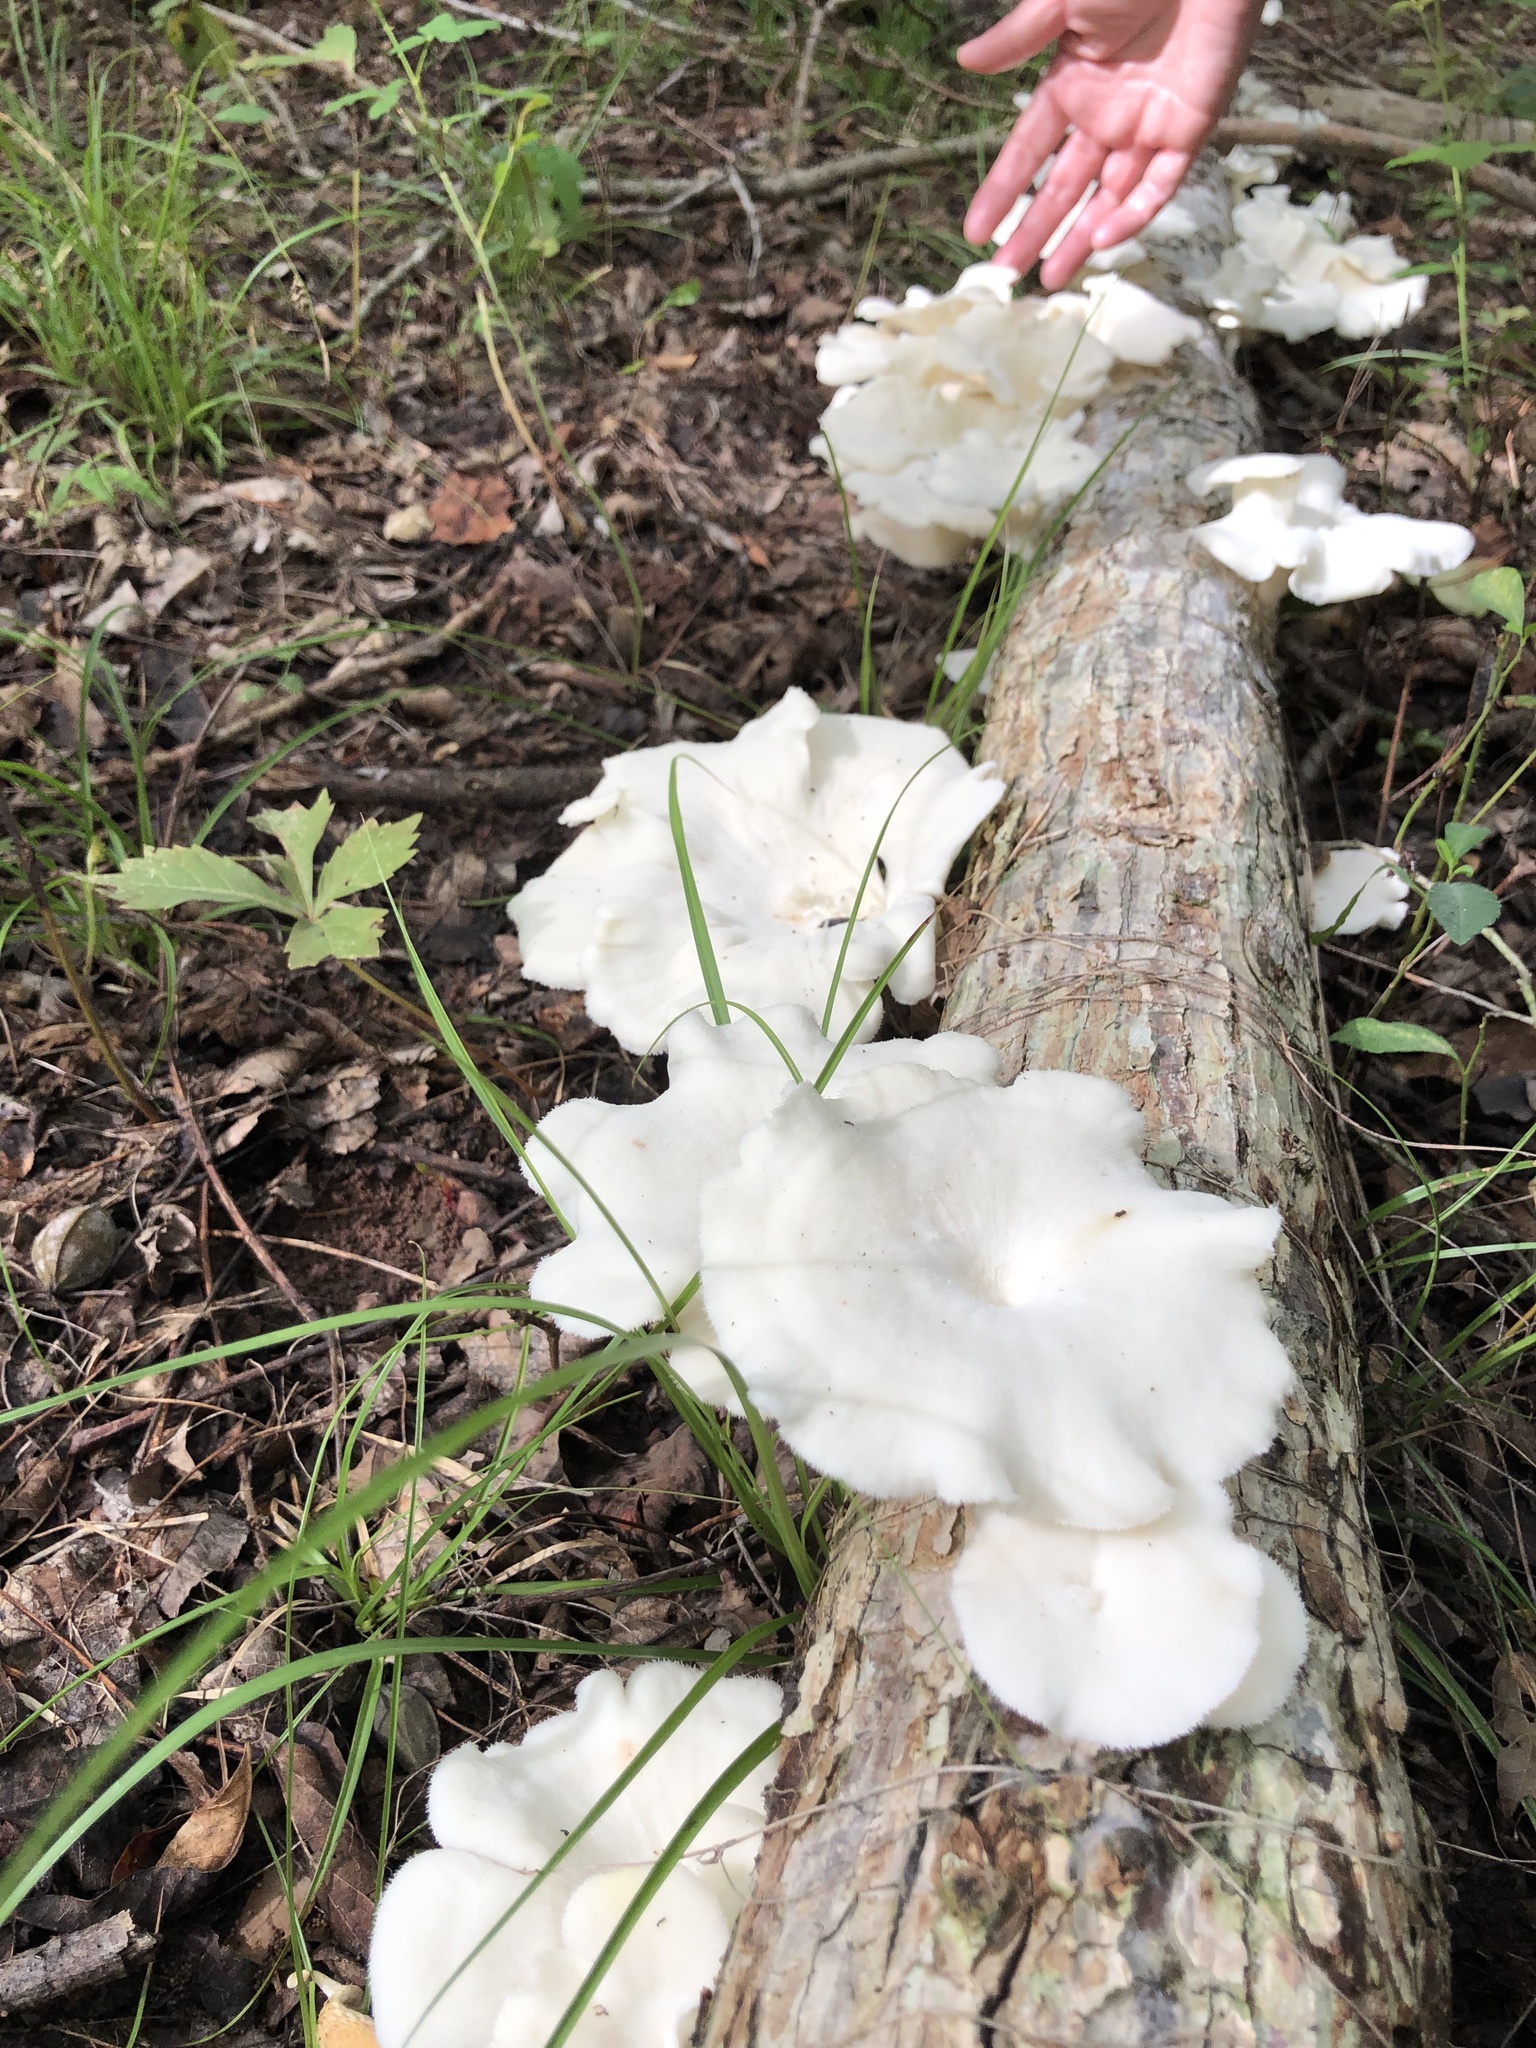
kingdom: Fungi
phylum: Basidiomycota
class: Agaricomycetes
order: Polyporales
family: Polyporaceae
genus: Favolus
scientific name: Favolus tenuiculus
